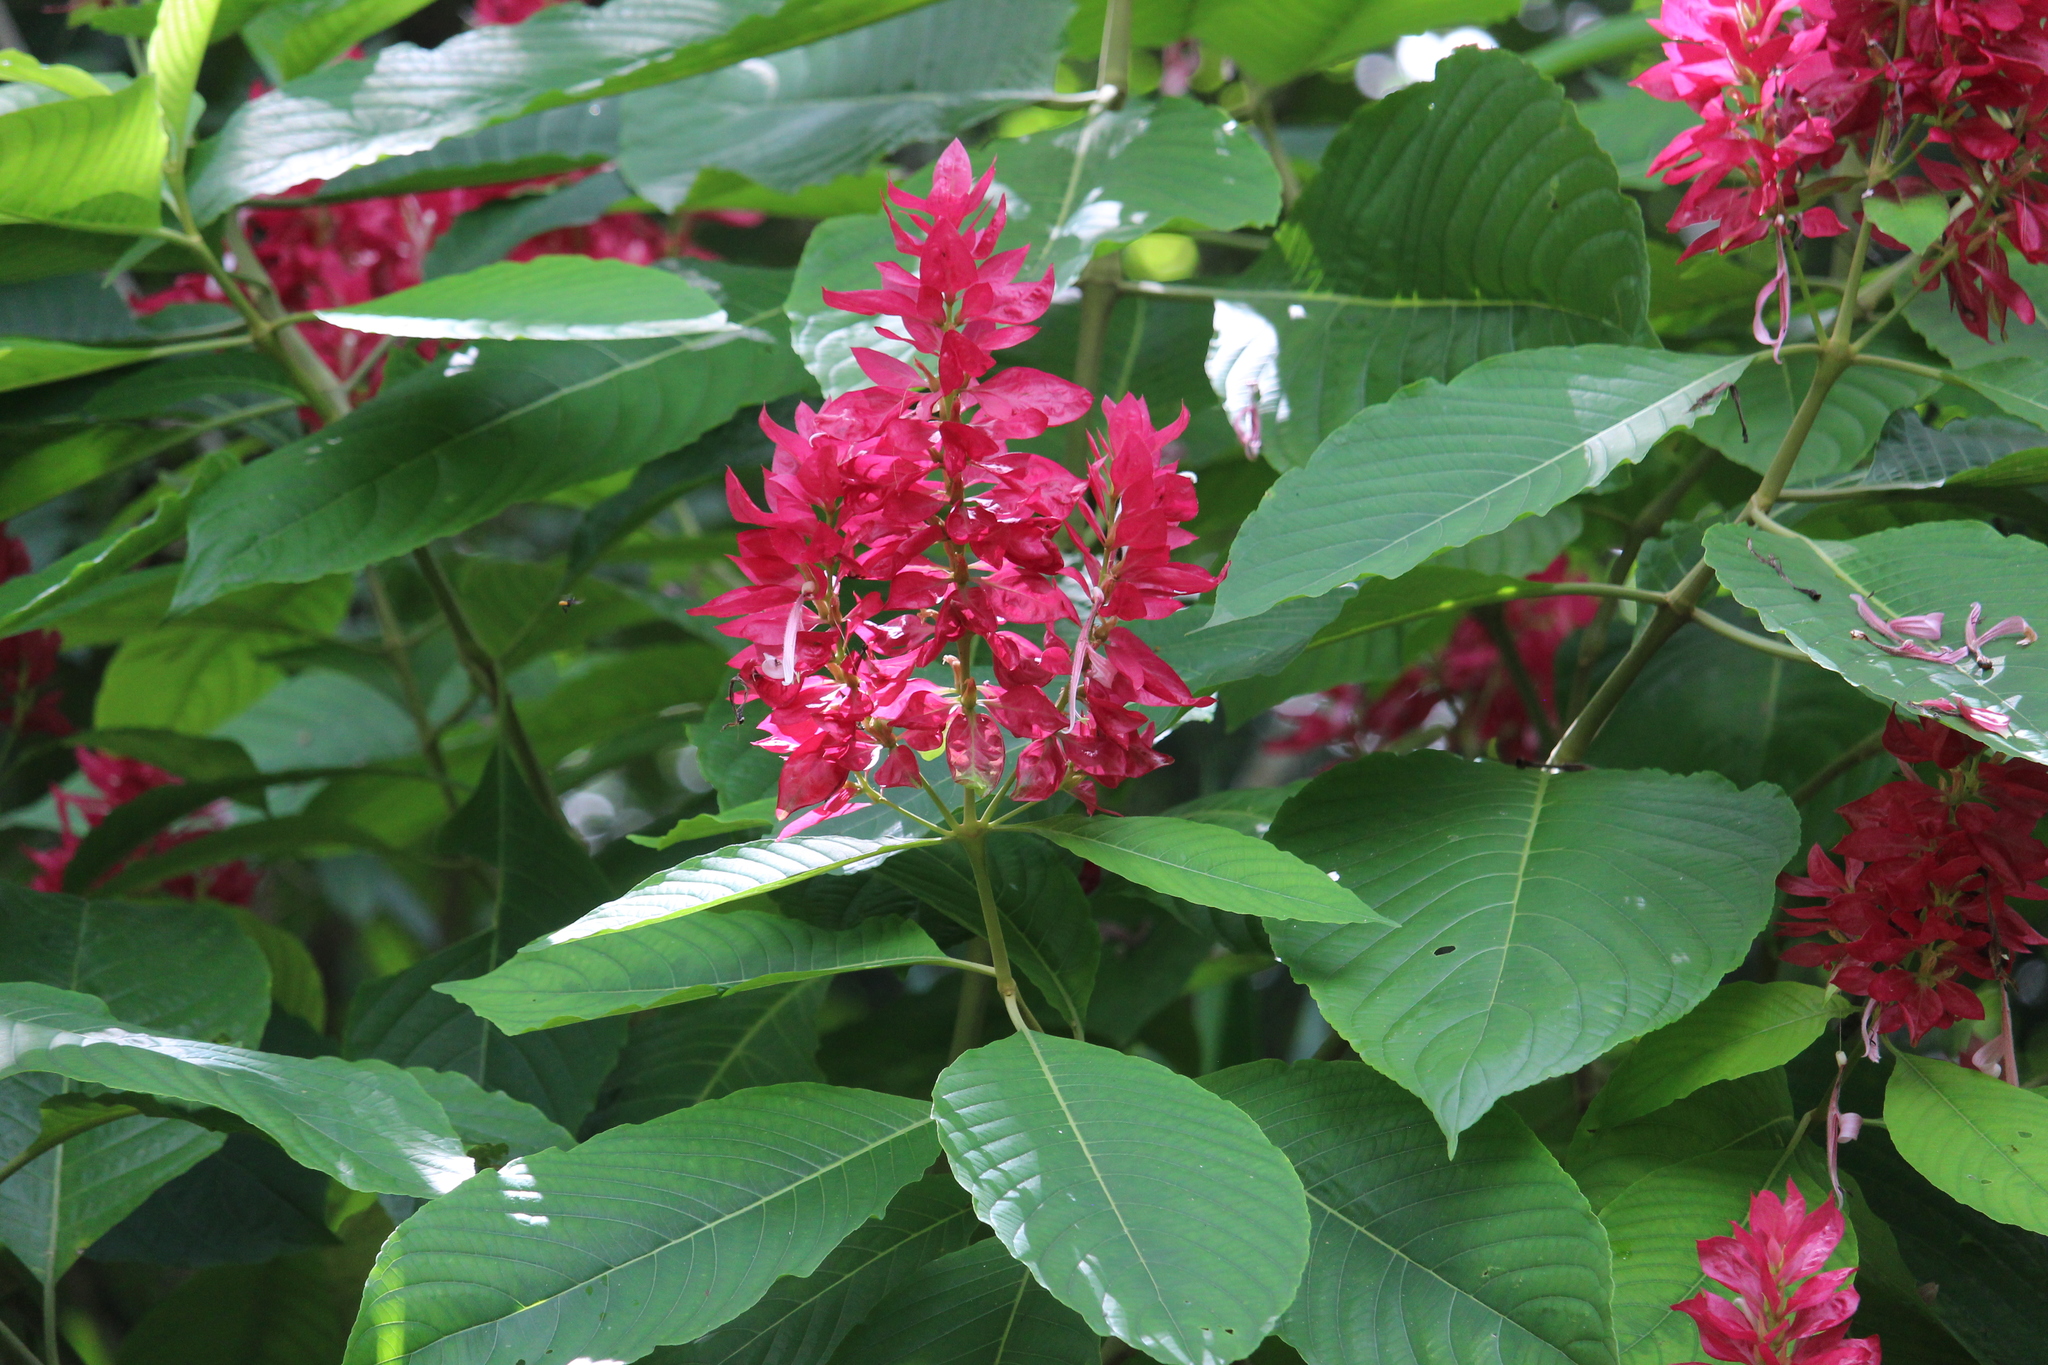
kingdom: Plantae
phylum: Tracheophyta
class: Magnoliopsida
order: Lamiales
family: Acanthaceae
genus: Megaskepasma
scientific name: Megaskepasma erythrochlamys
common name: Brazilian red-cloak
